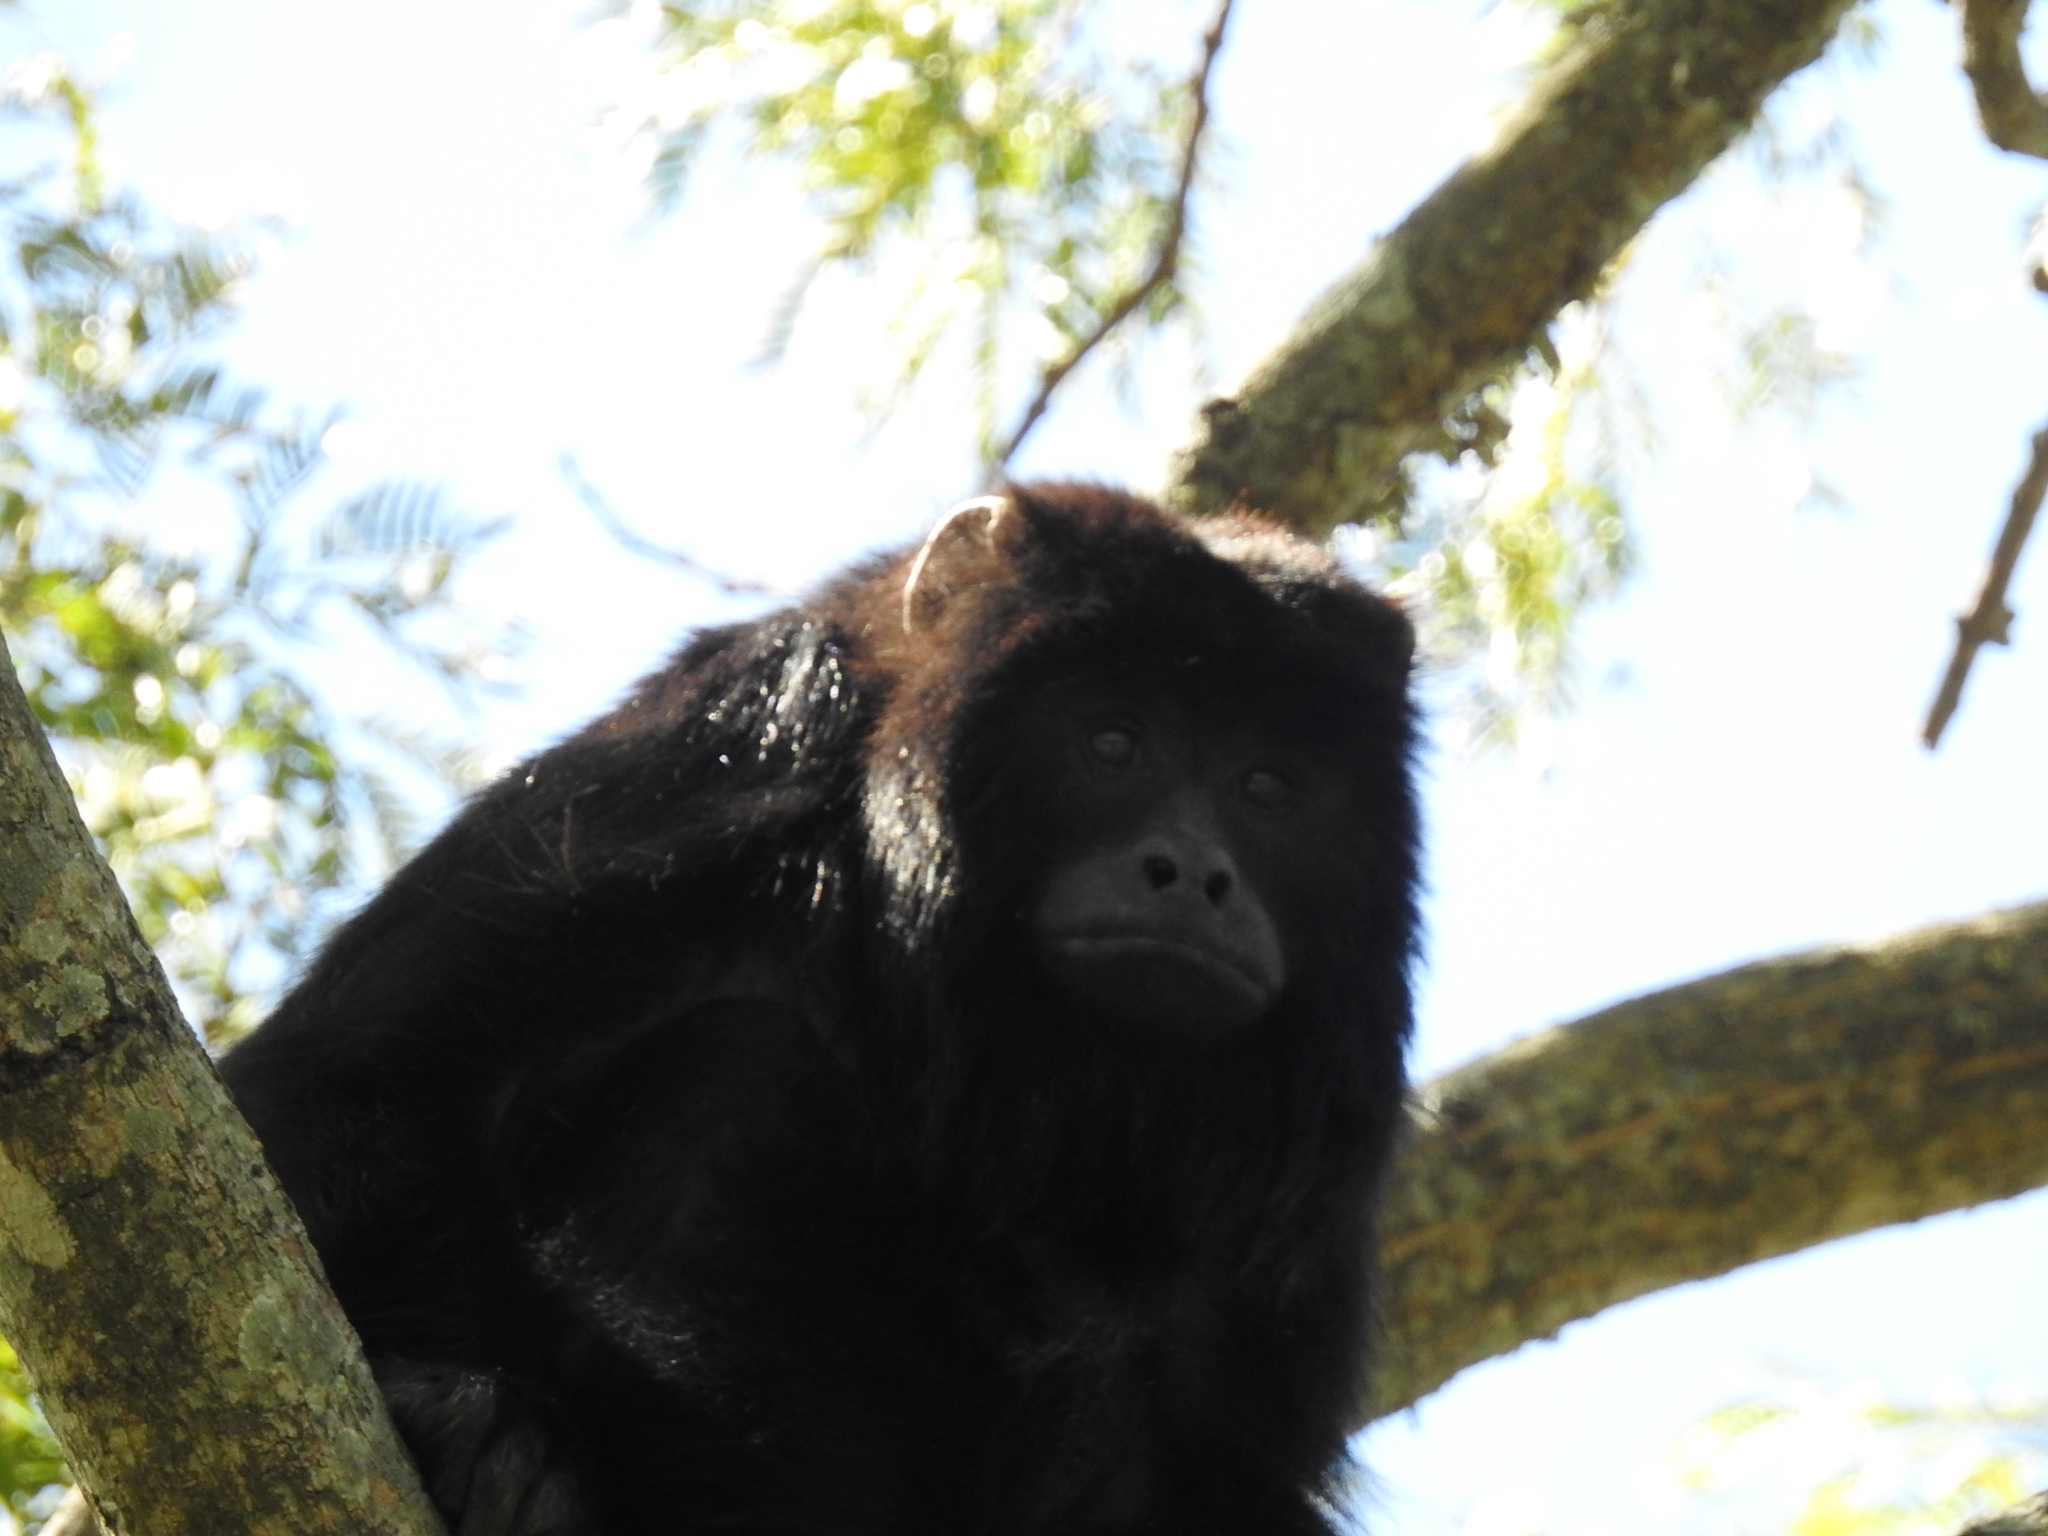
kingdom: Animalia
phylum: Chordata
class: Mammalia
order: Primates
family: Atelidae
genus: Alouatta
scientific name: Alouatta caraya
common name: Black howler
